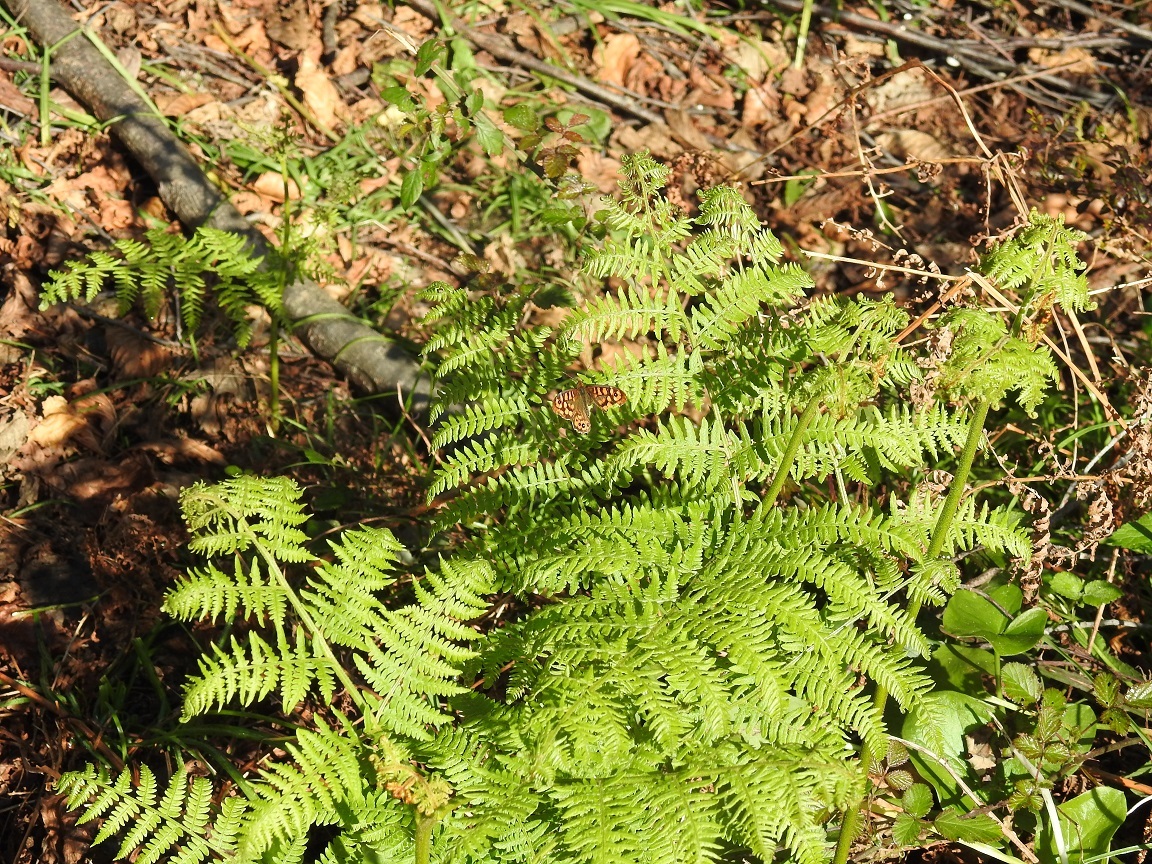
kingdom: Plantae
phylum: Tracheophyta
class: Polypodiopsida
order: Polypodiales
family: Dennstaedtiaceae
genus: Pteridium
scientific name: Pteridium aquilinum
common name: Bracken
